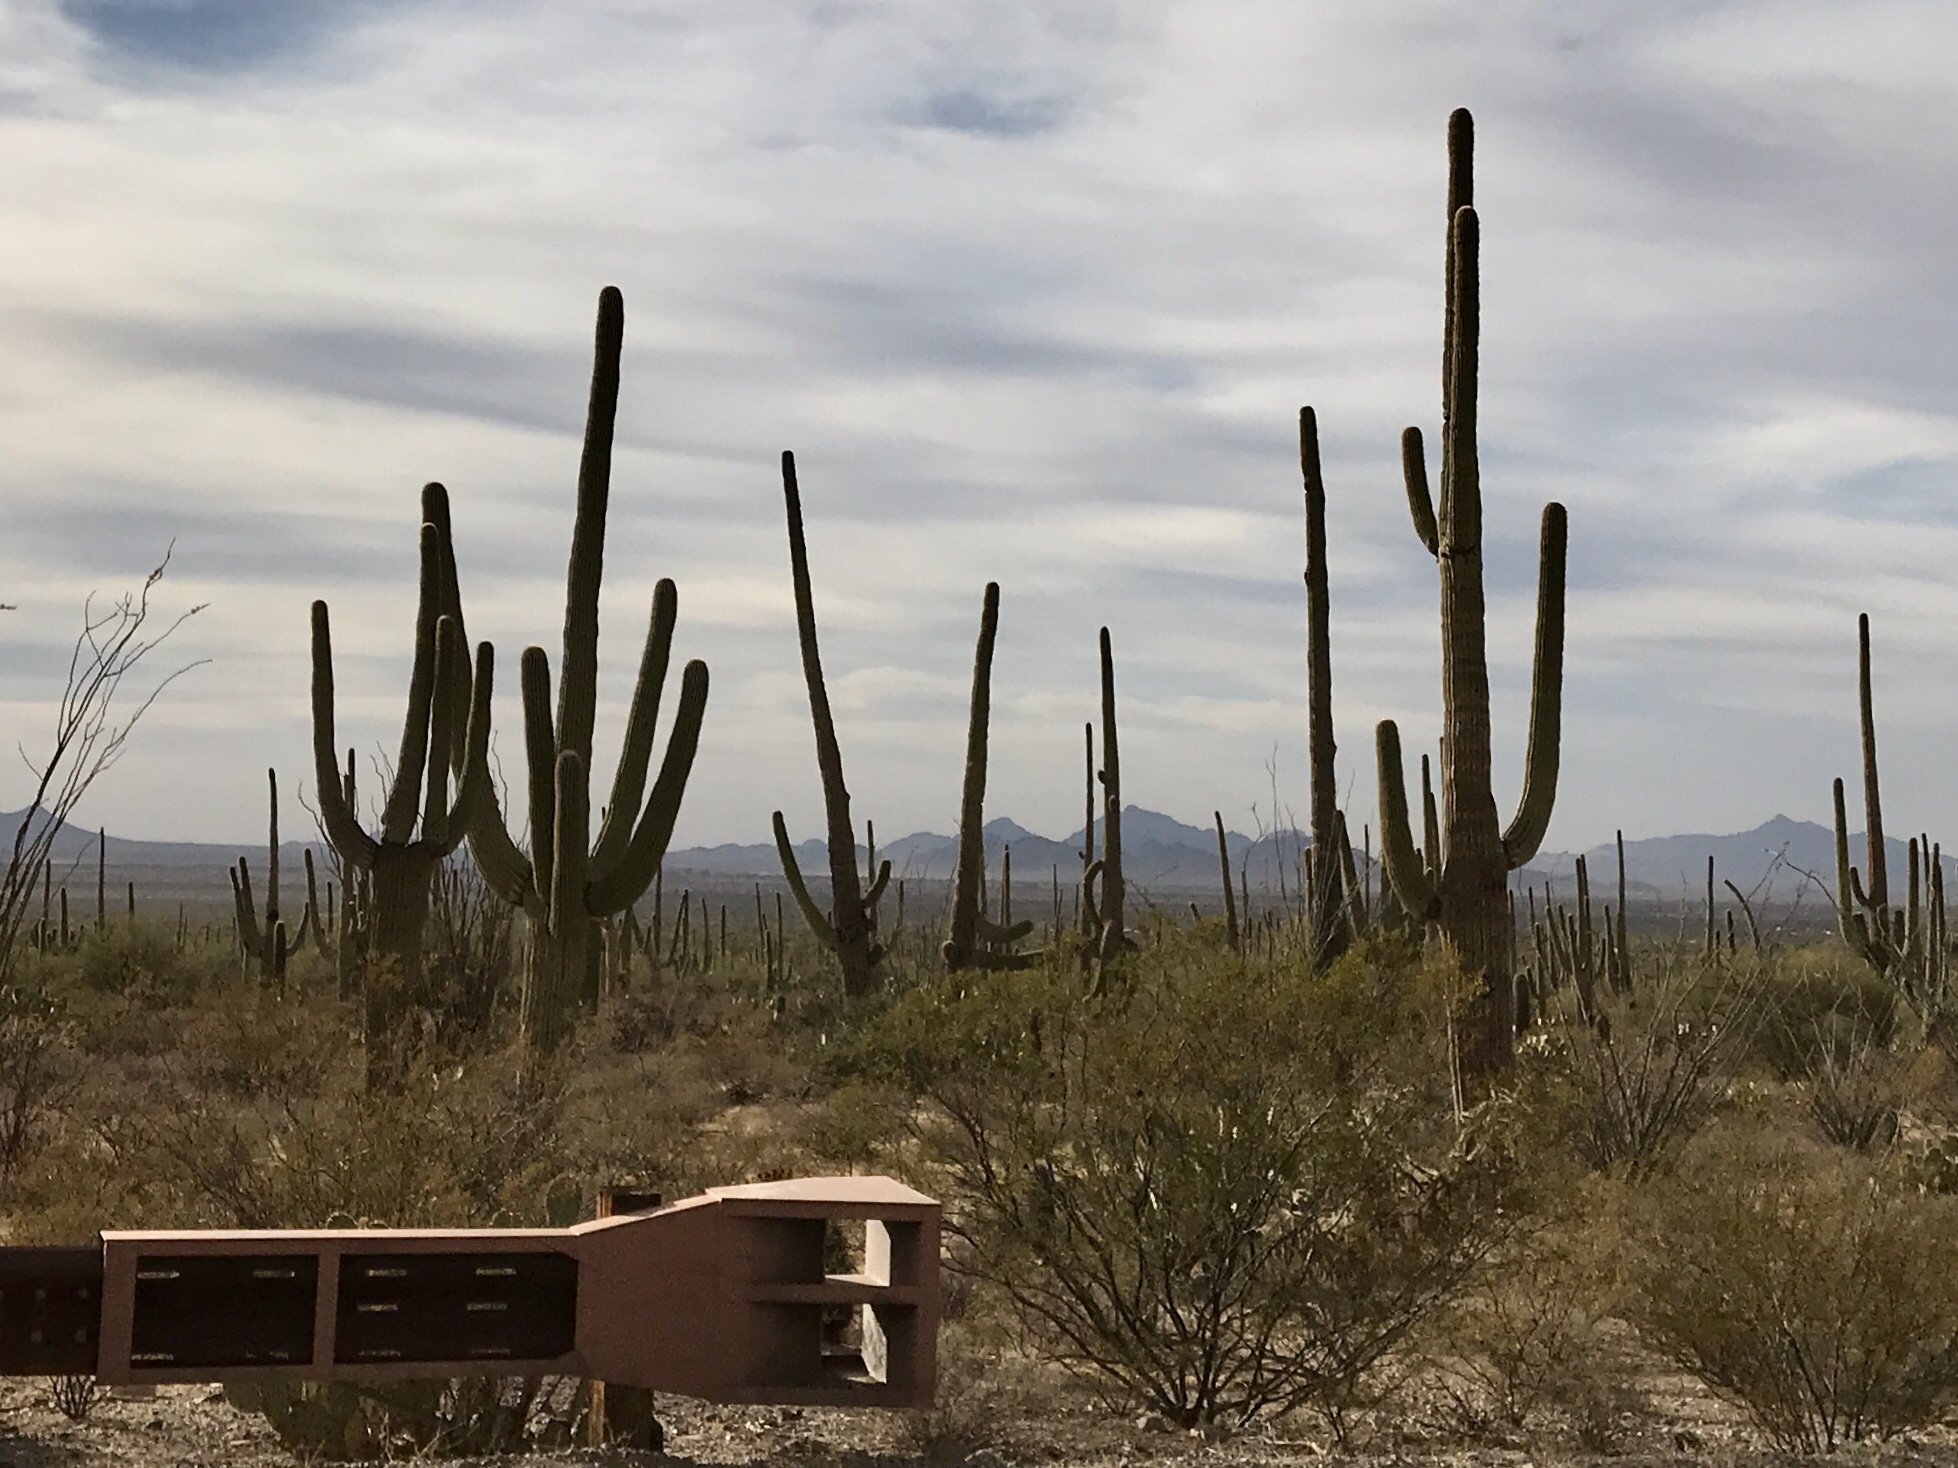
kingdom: Plantae
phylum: Tracheophyta
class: Magnoliopsida
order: Caryophyllales
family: Cactaceae
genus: Carnegiea
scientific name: Carnegiea gigantea
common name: Saguaro
